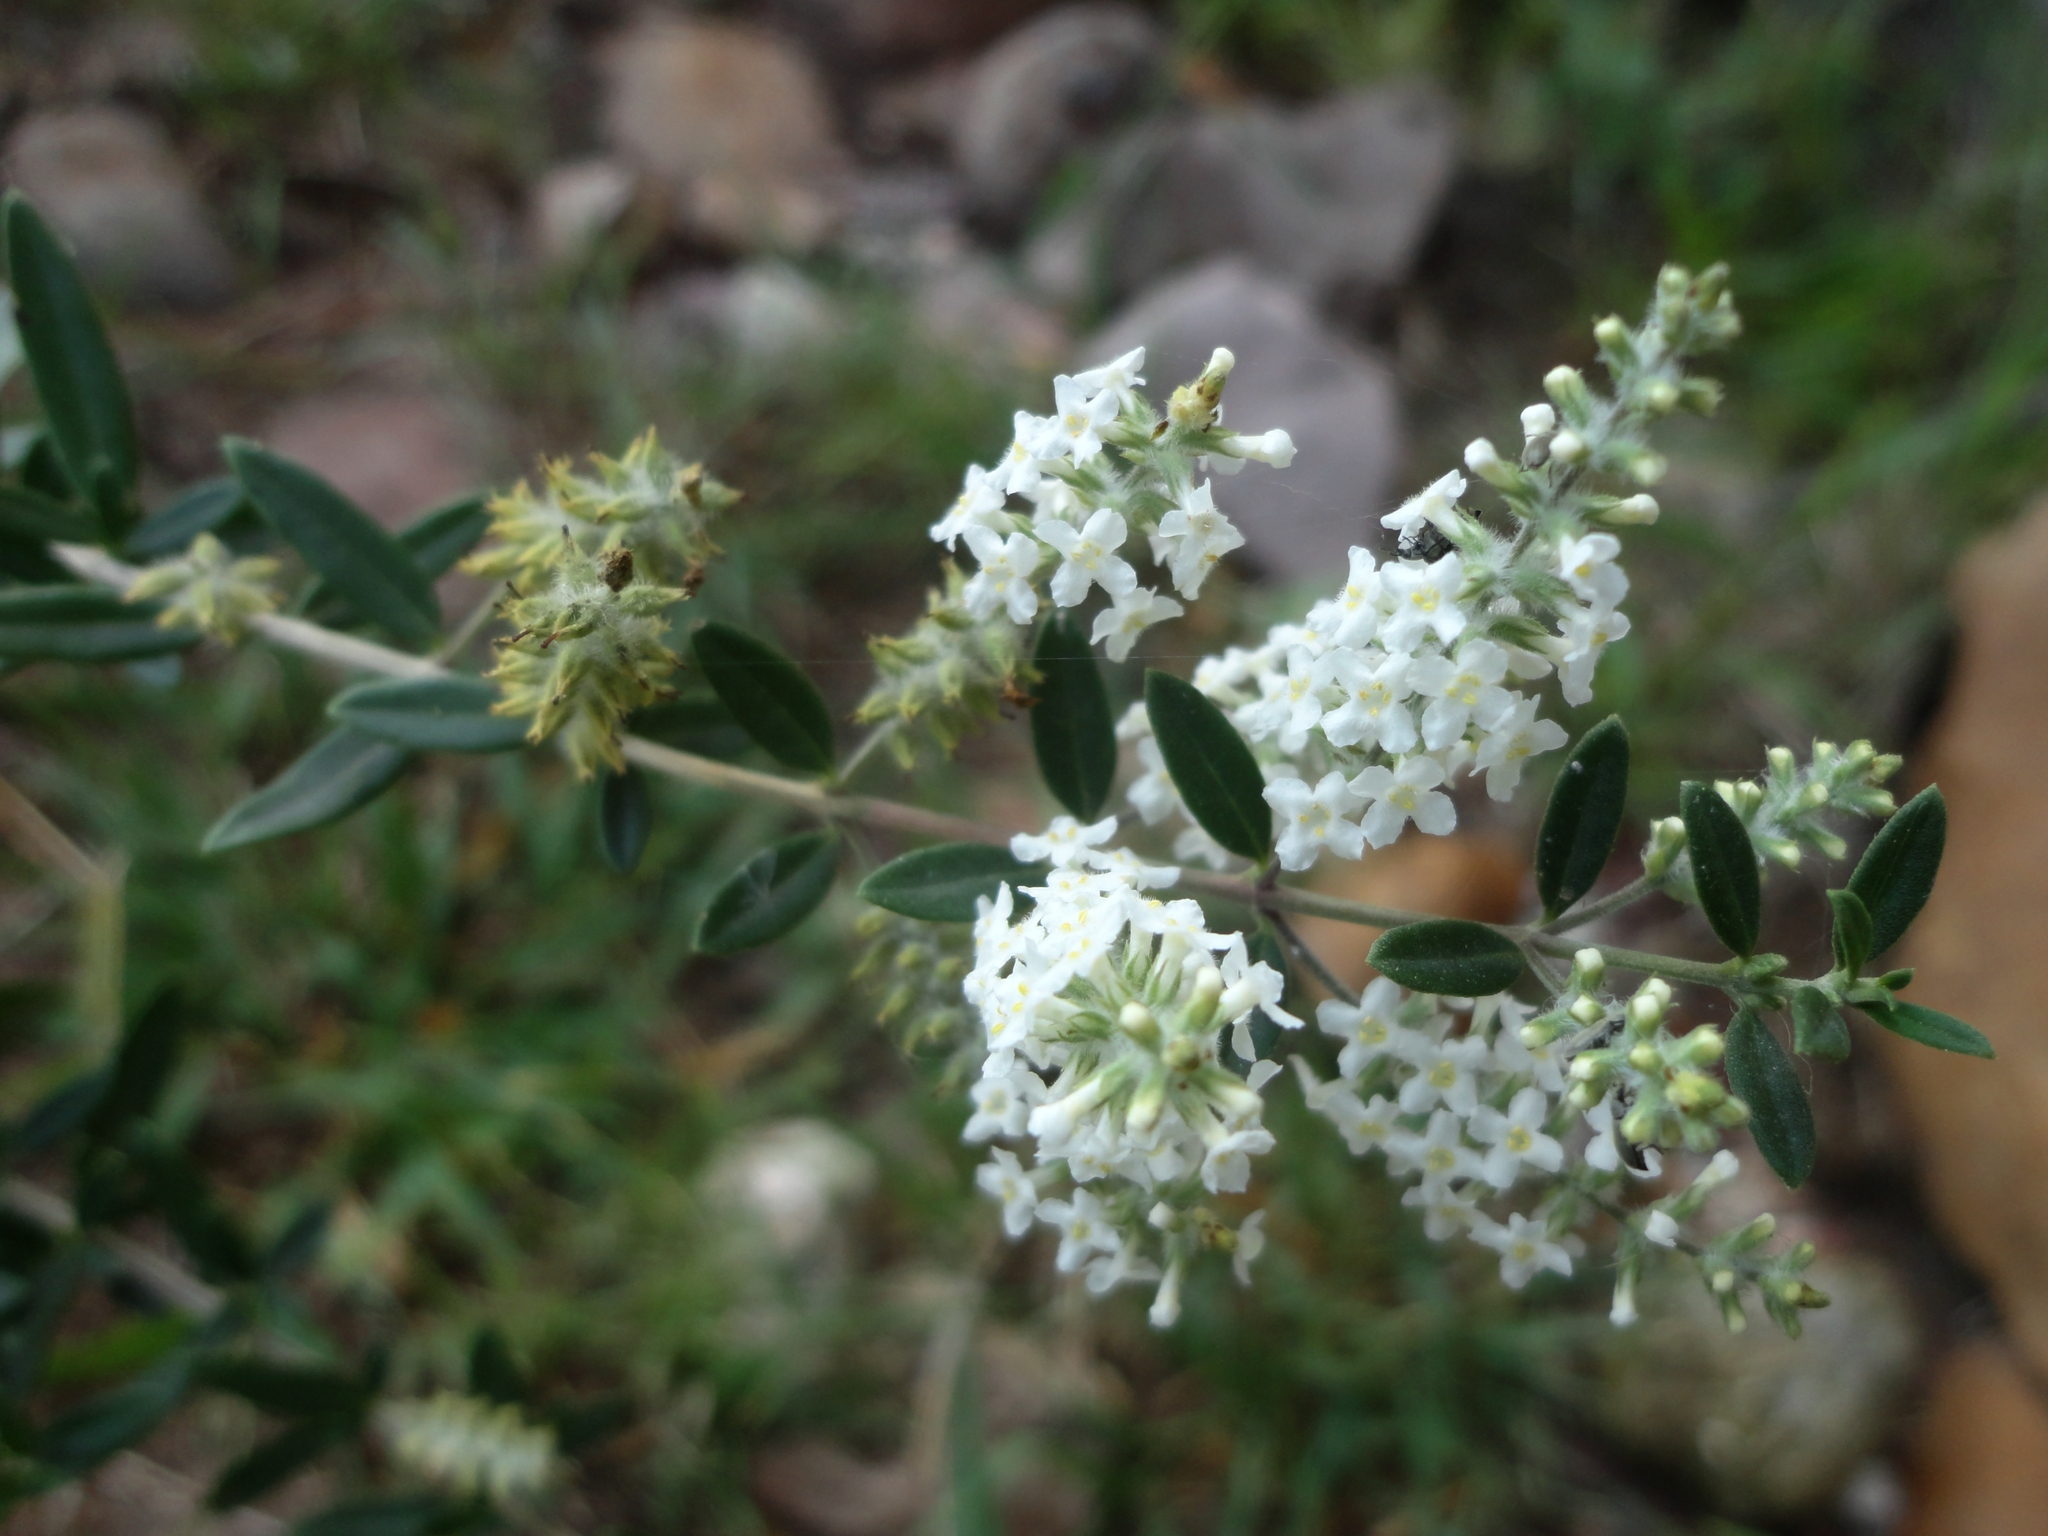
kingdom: Plantae
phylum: Tracheophyta
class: Magnoliopsida
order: Lamiales
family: Verbenaceae
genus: Aloysia
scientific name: Aloysia gratissima
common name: Common bee-brush
